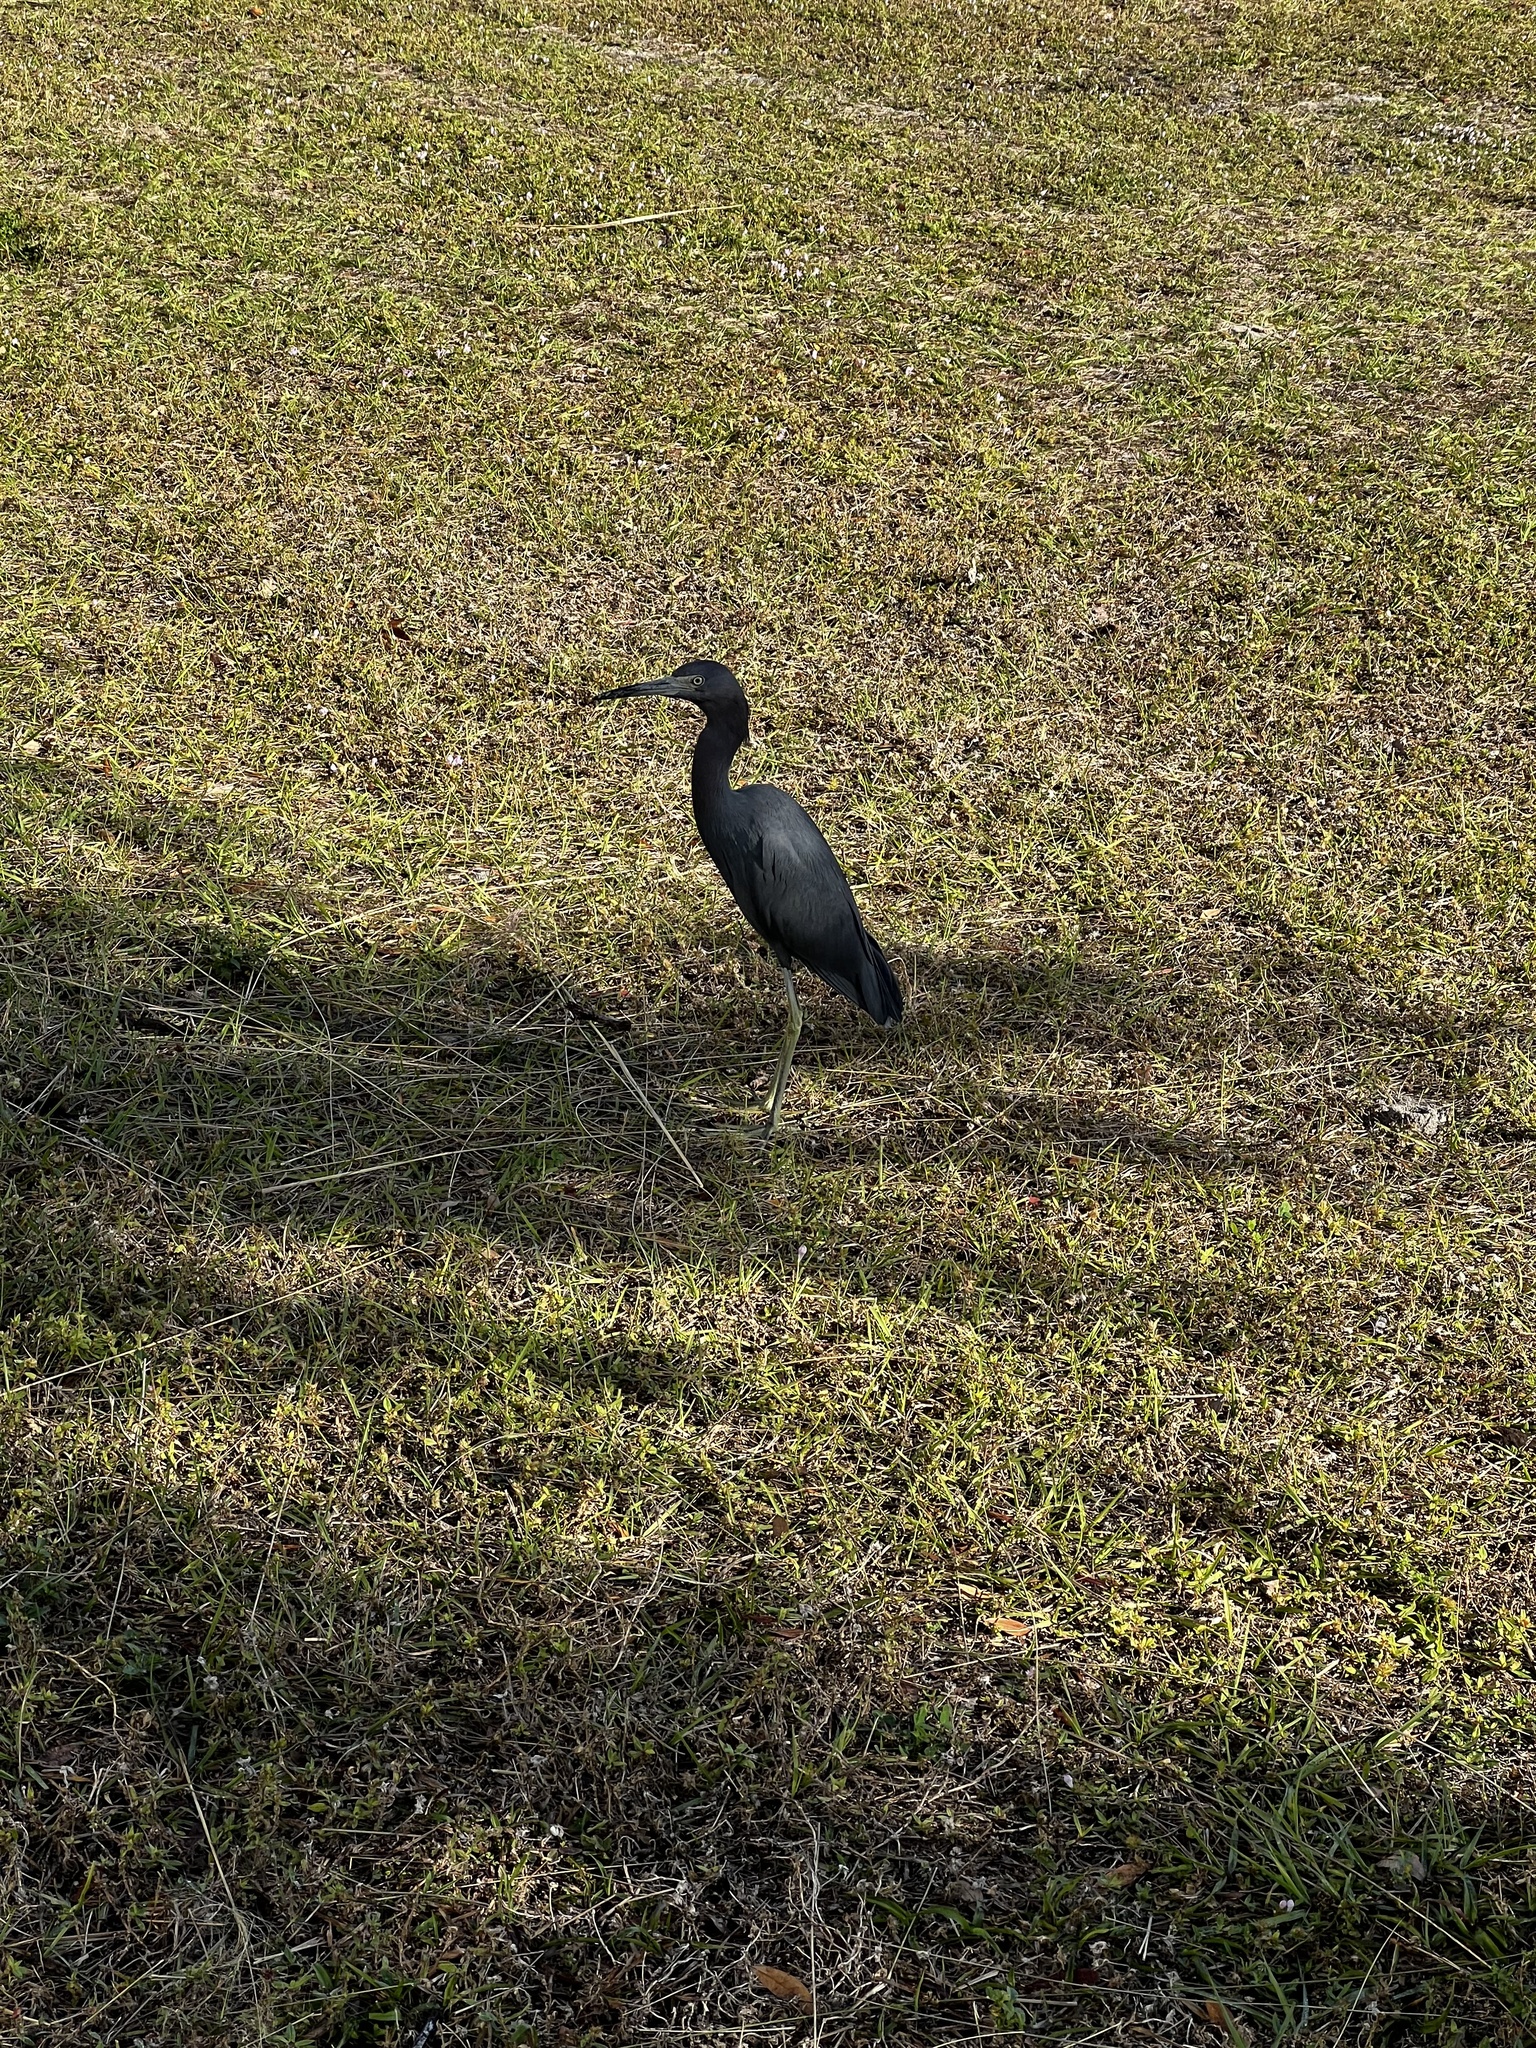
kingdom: Animalia
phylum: Chordata
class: Aves
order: Pelecaniformes
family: Ardeidae
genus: Egretta
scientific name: Egretta caerulea
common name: Little blue heron
